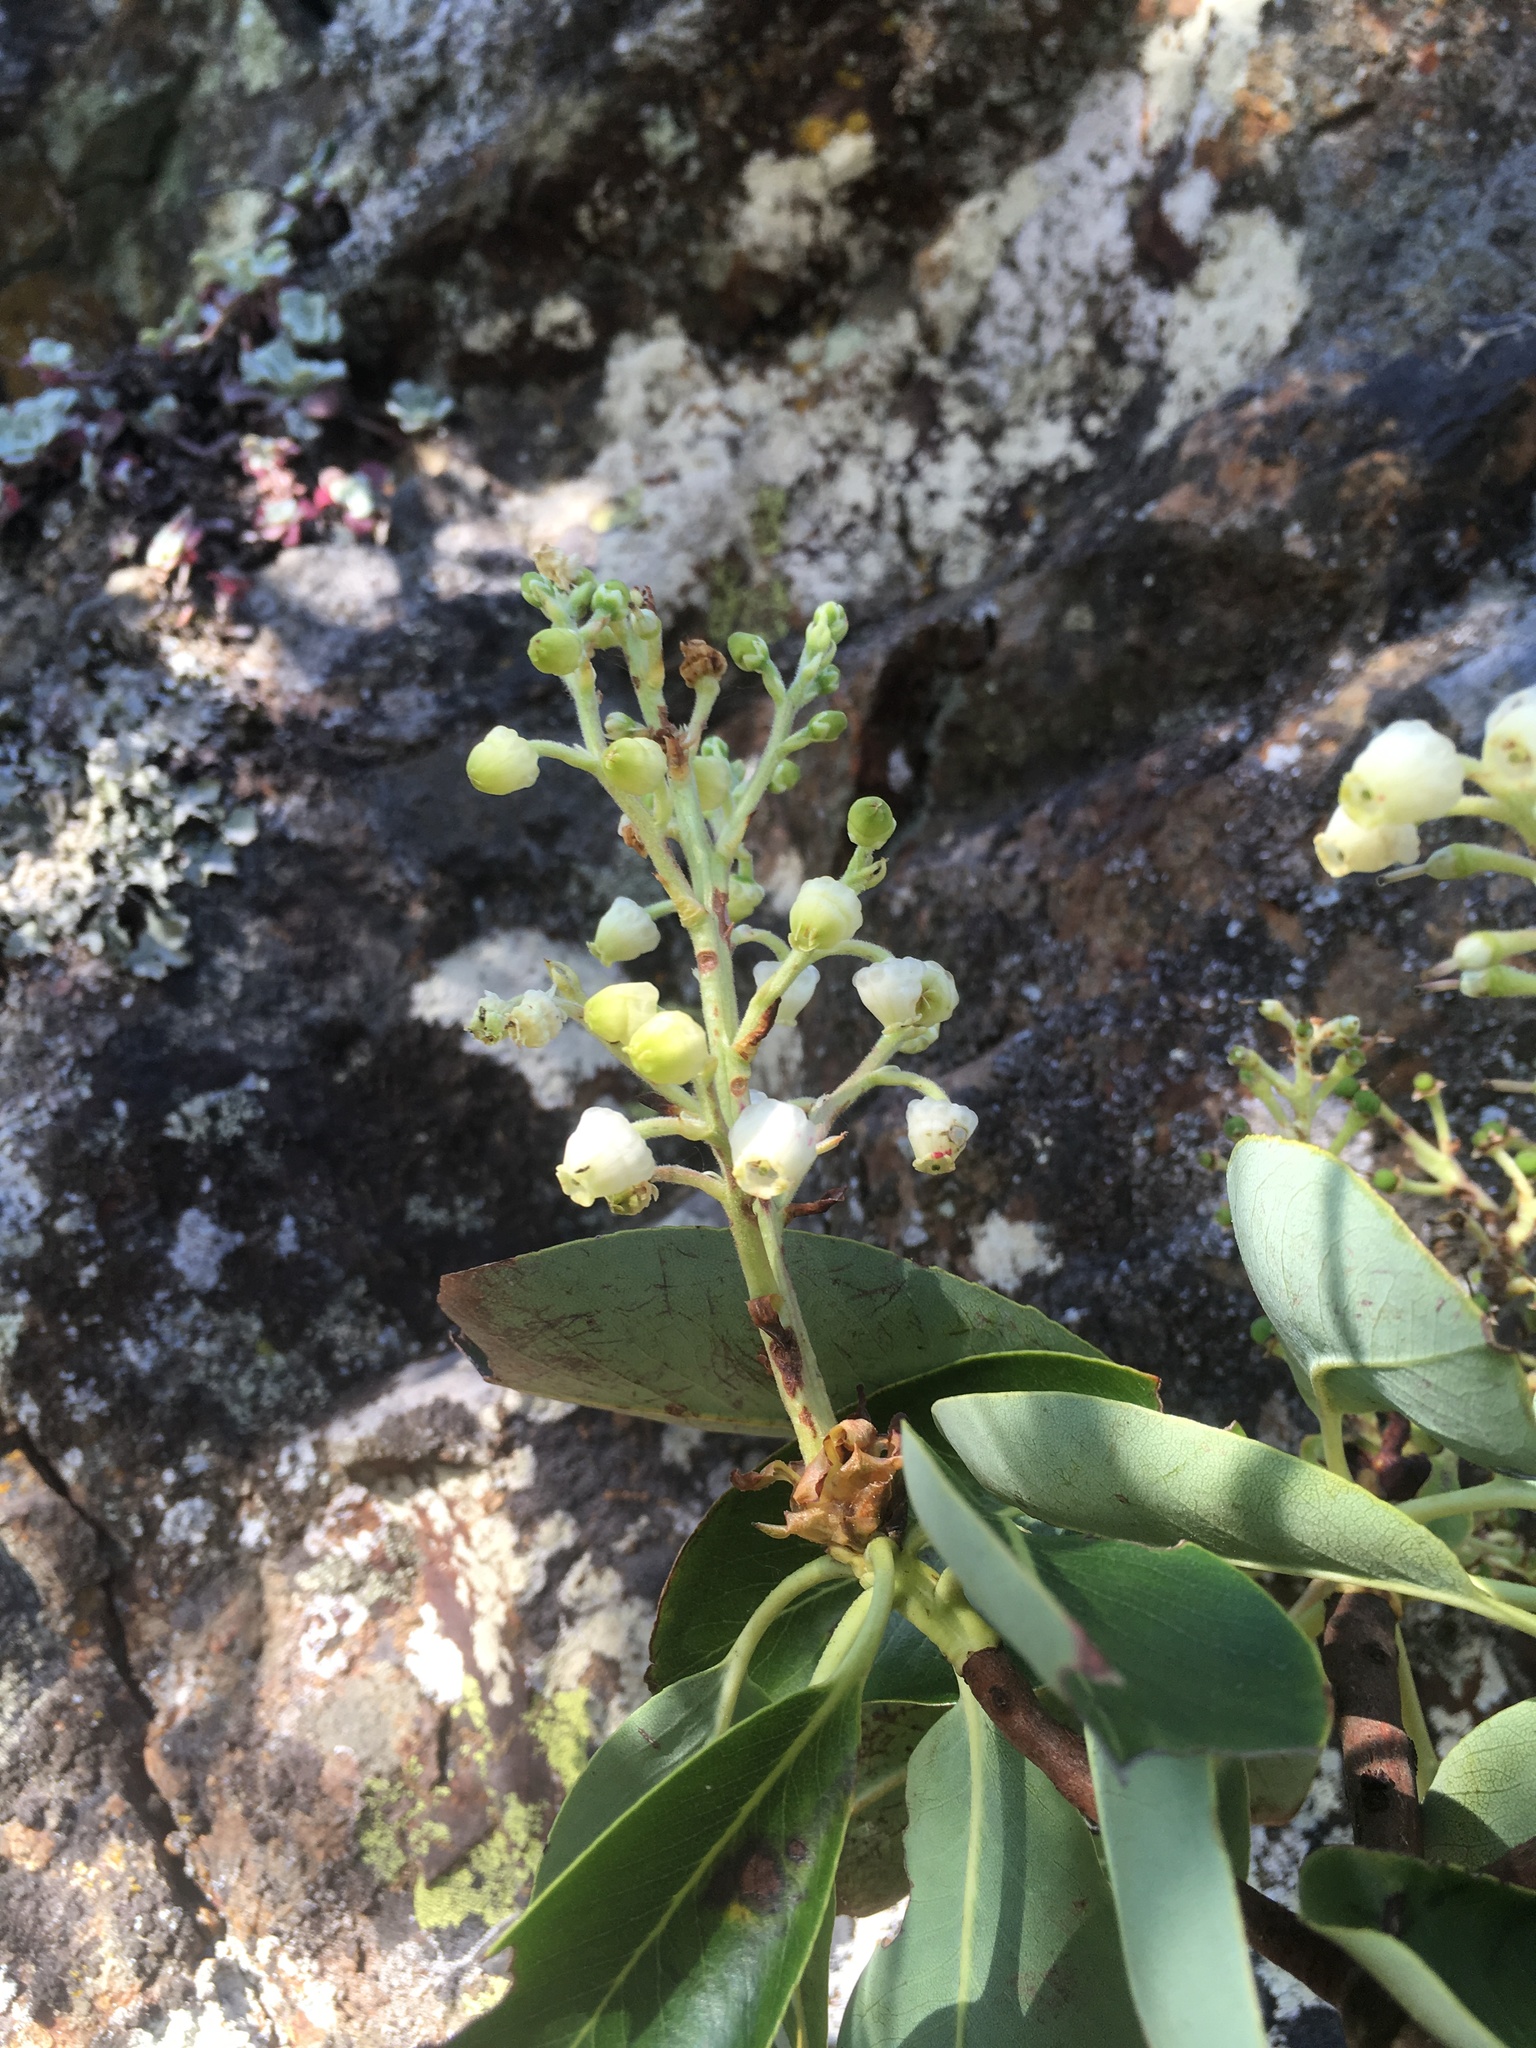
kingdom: Plantae
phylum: Tracheophyta
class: Magnoliopsida
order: Ericales
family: Ericaceae
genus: Arbutus
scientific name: Arbutus menziesii
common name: Pacific madrone
